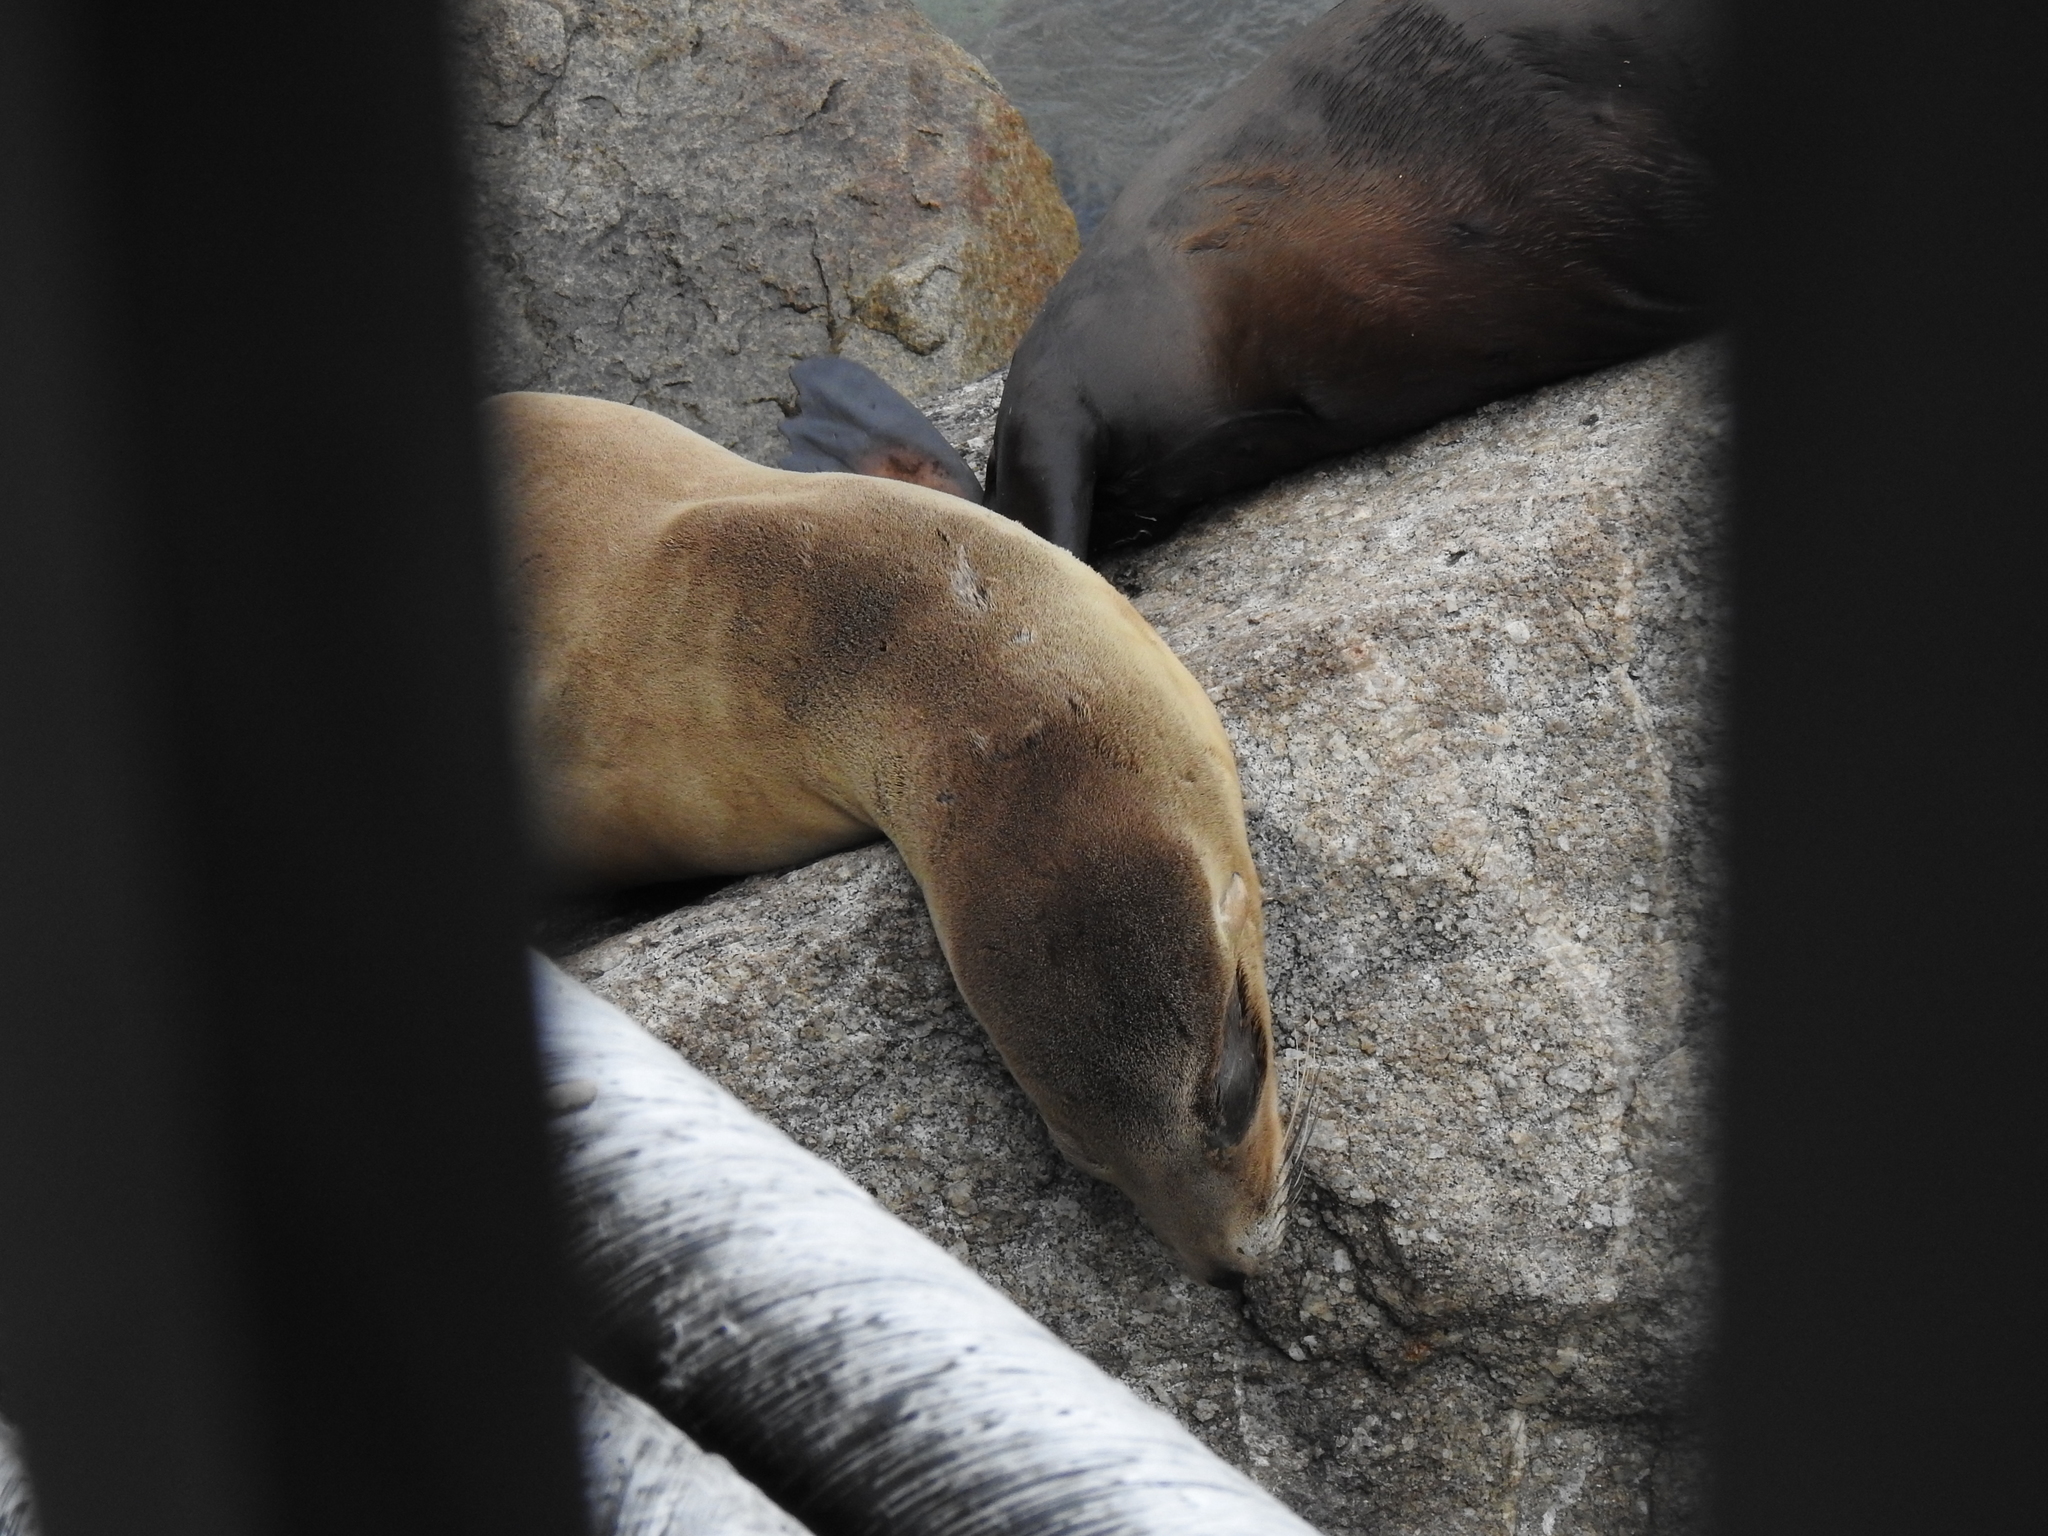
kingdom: Animalia
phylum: Chordata
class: Mammalia
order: Carnivora
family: Otariidae
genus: Zalophus
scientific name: Zalophus californianus
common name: California sea lion
